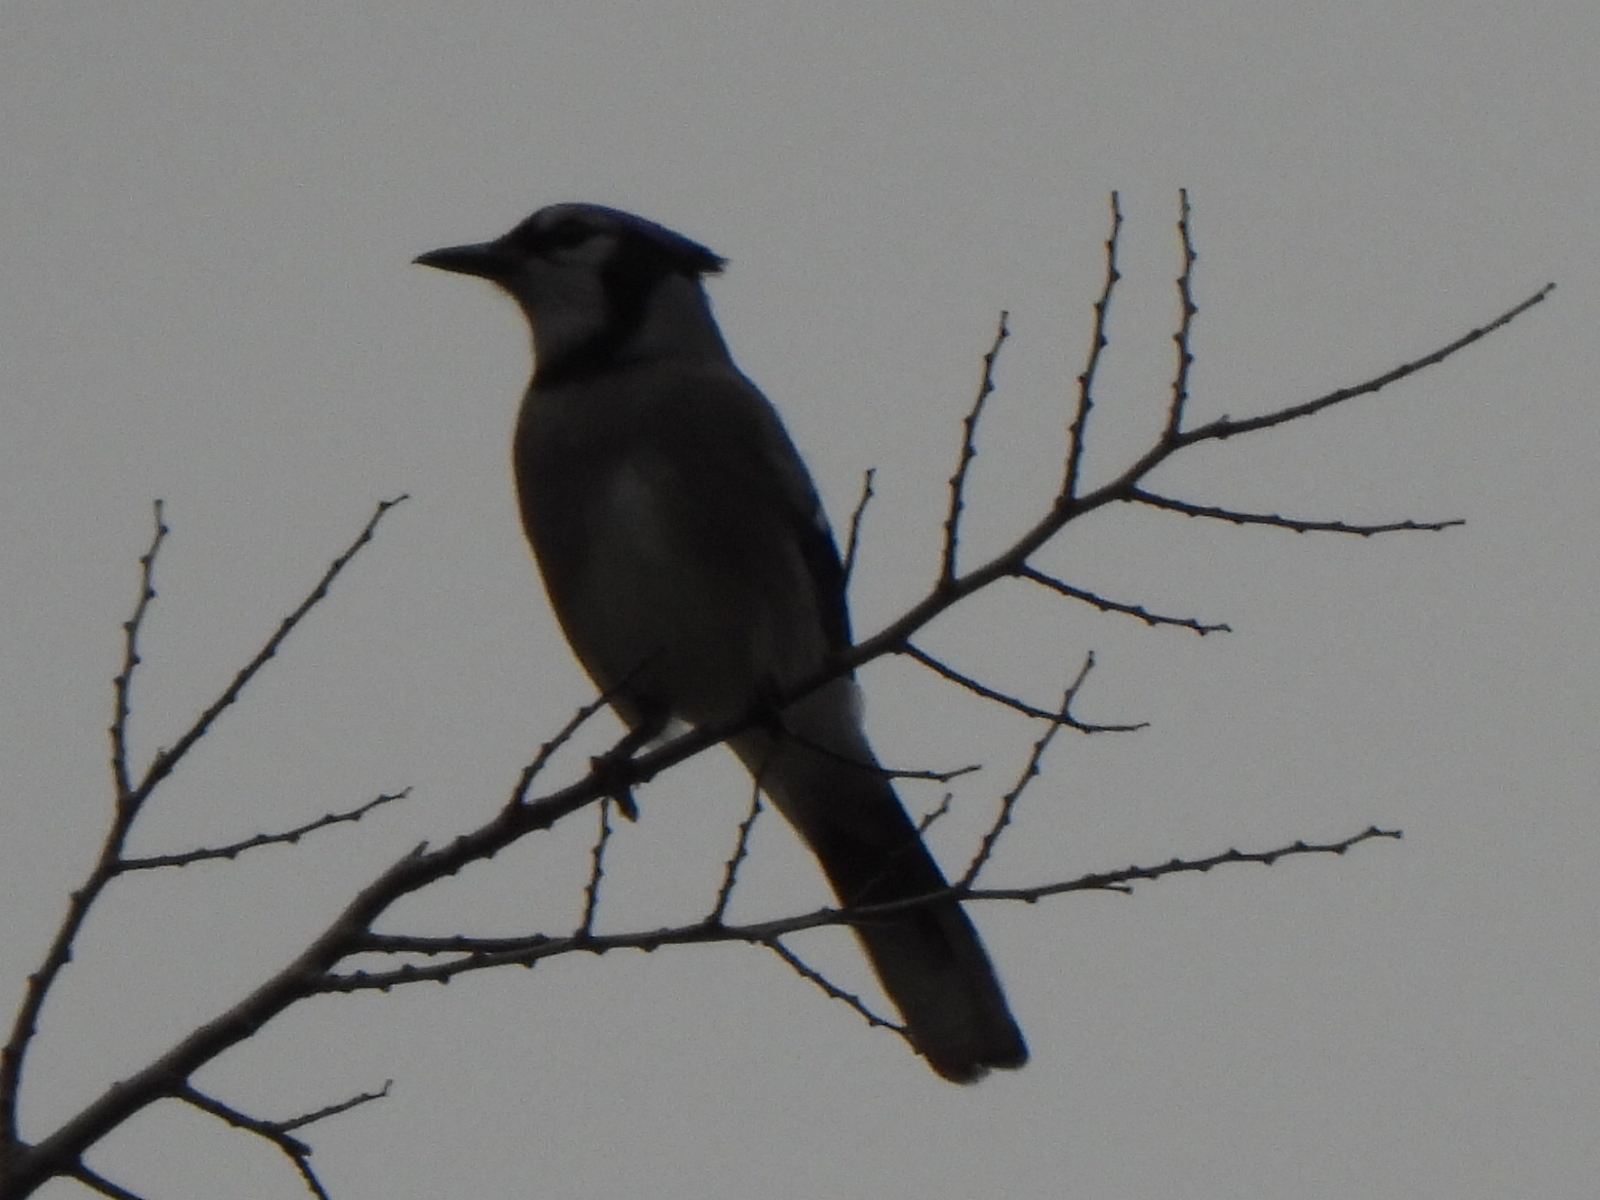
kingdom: Animalia
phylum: Chordata
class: Aves
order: Passeriformes
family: Corvidae
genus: Cyanocitta
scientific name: Cyanocitta cristata
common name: Blue jay
